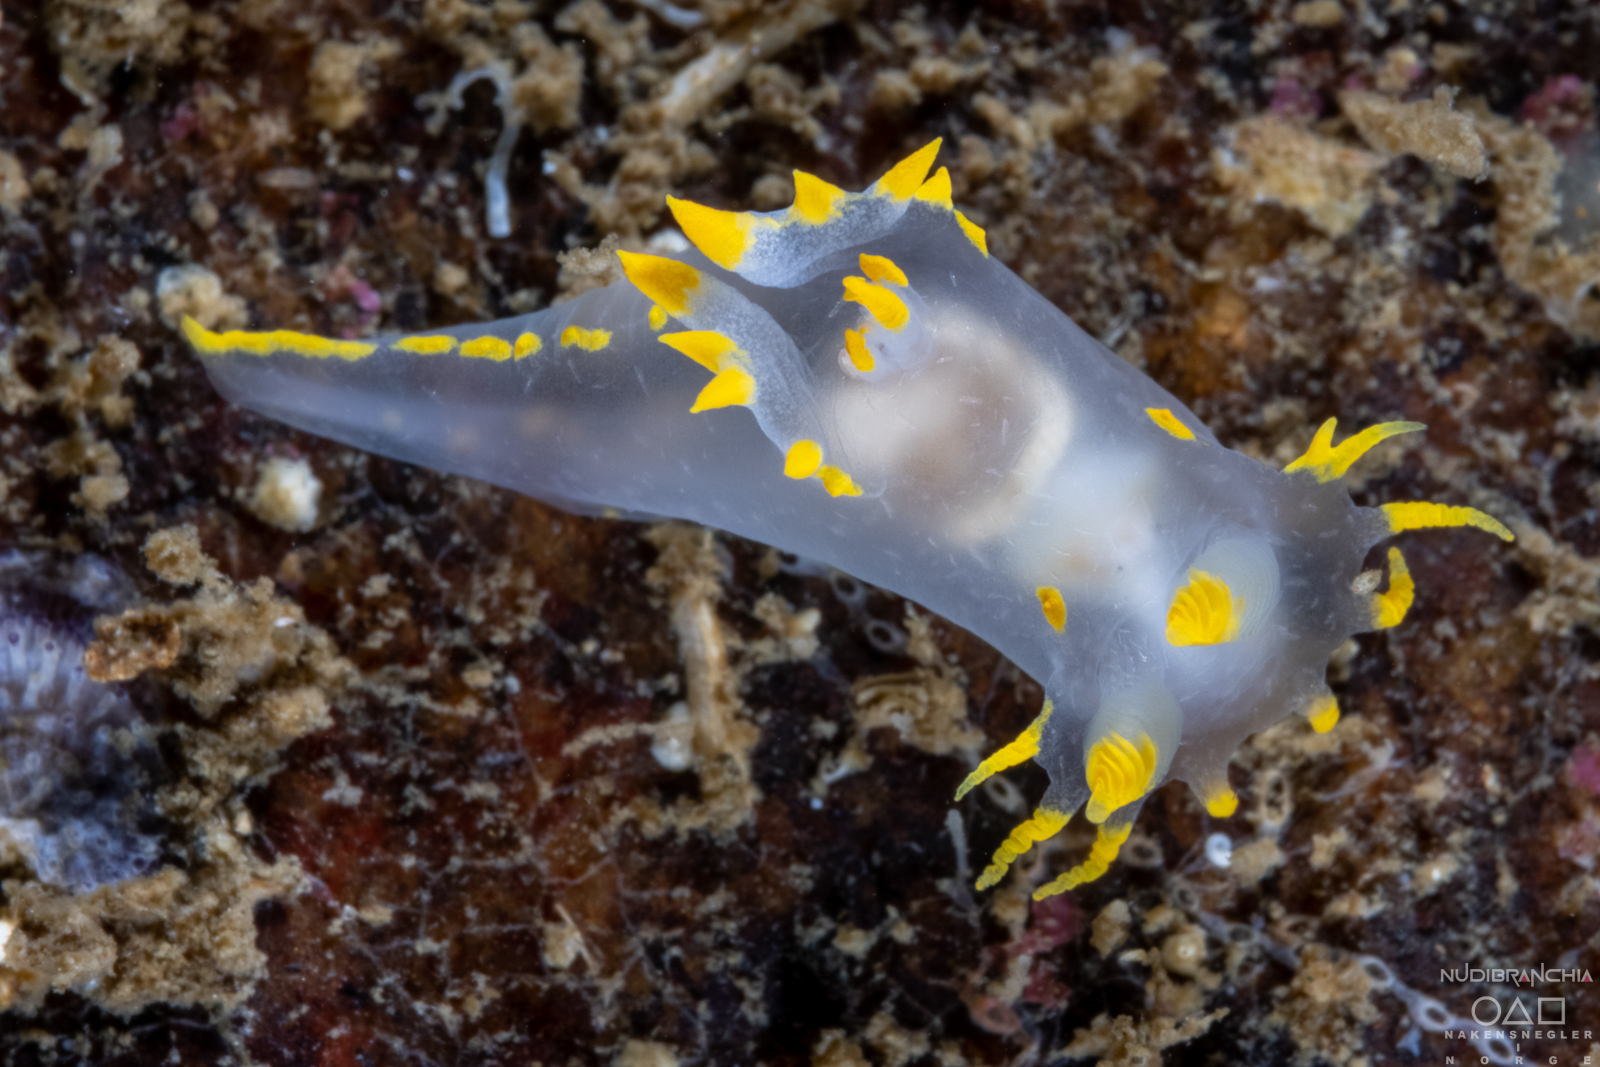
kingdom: Animalia
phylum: Mollusca
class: Gastropoda
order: Nudibranchia
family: Polyceridae
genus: Polycera
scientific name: Polycera faeroensis
